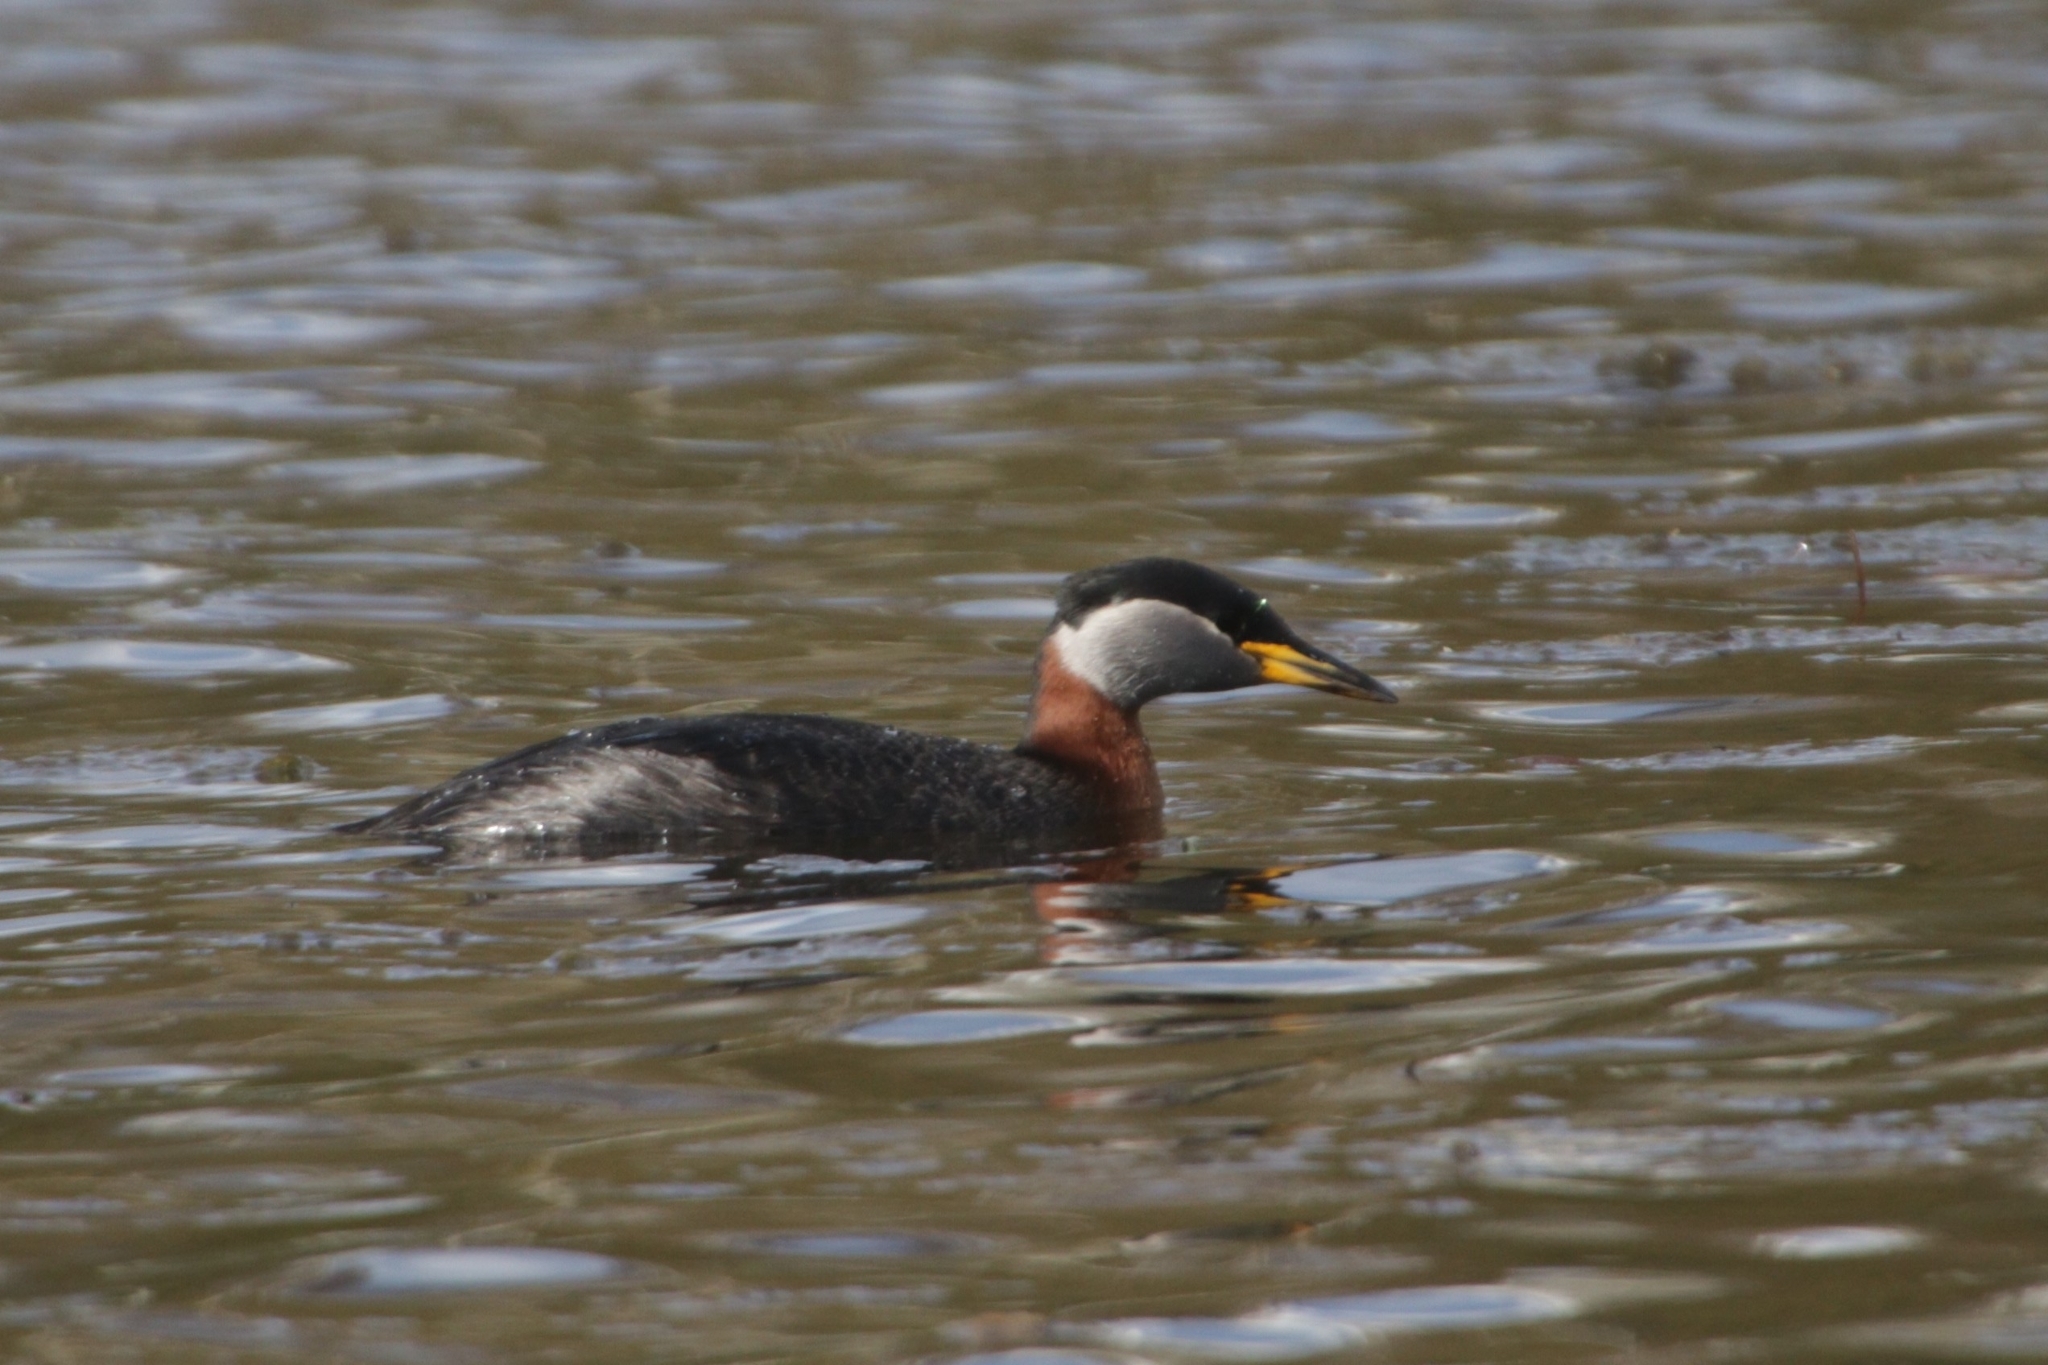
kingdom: Animalia
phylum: Chordata
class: Aves
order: Podicipediformes
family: Podicipedidae
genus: Podiceps
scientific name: Podiceps grisegena
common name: Red-necked grebe
